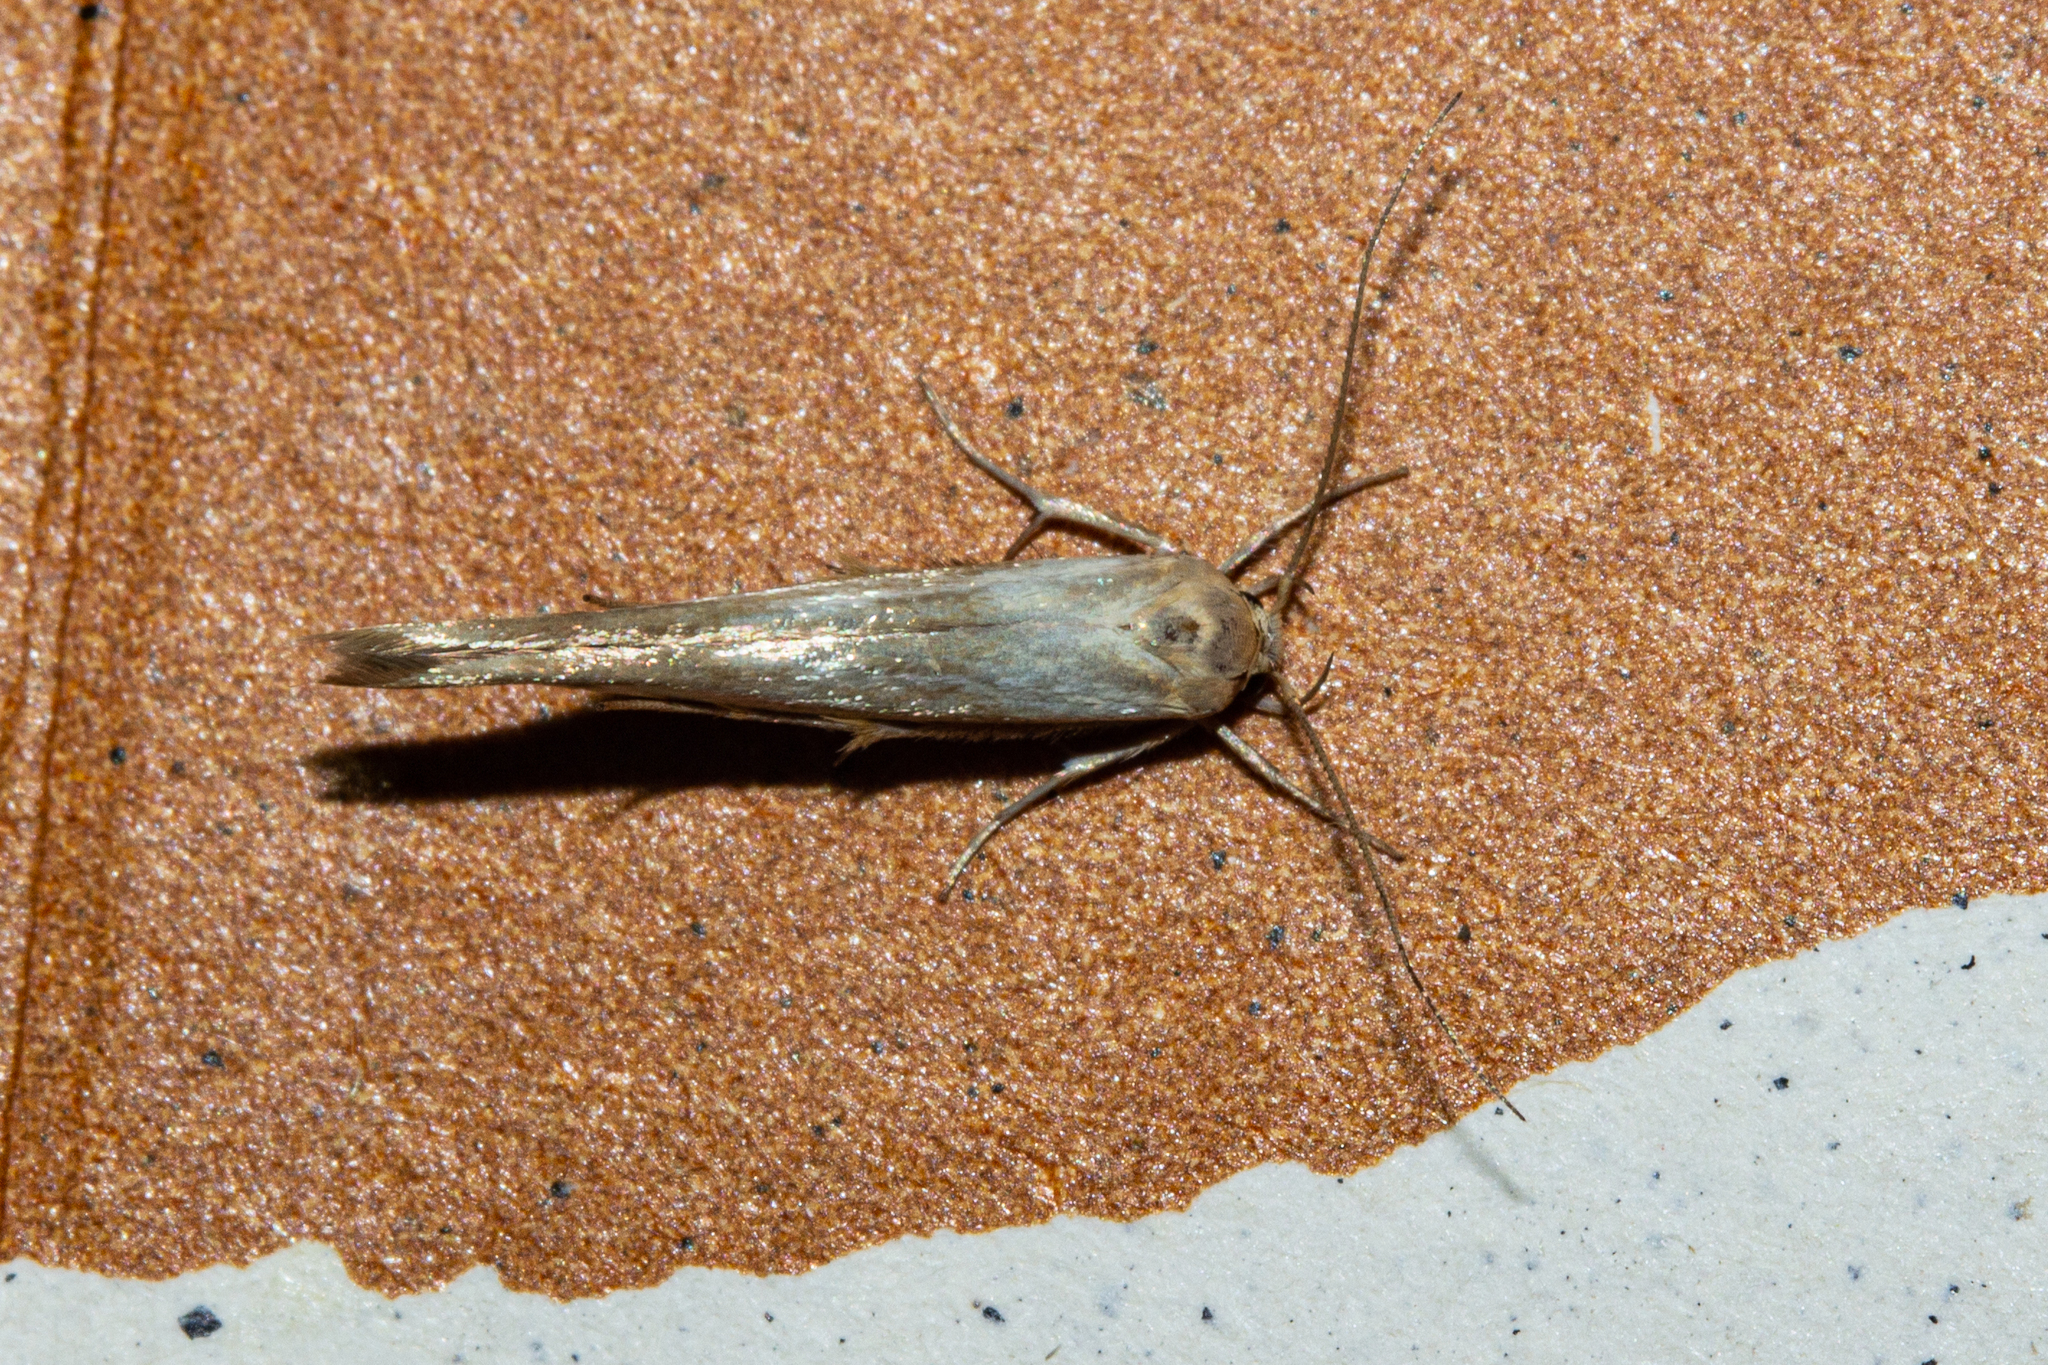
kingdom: Animalia
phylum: Arthropoda
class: Insecta
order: Lepidoptera
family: Stathmopodidae
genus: Stathmopoda
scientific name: Stathmopoda aposema
